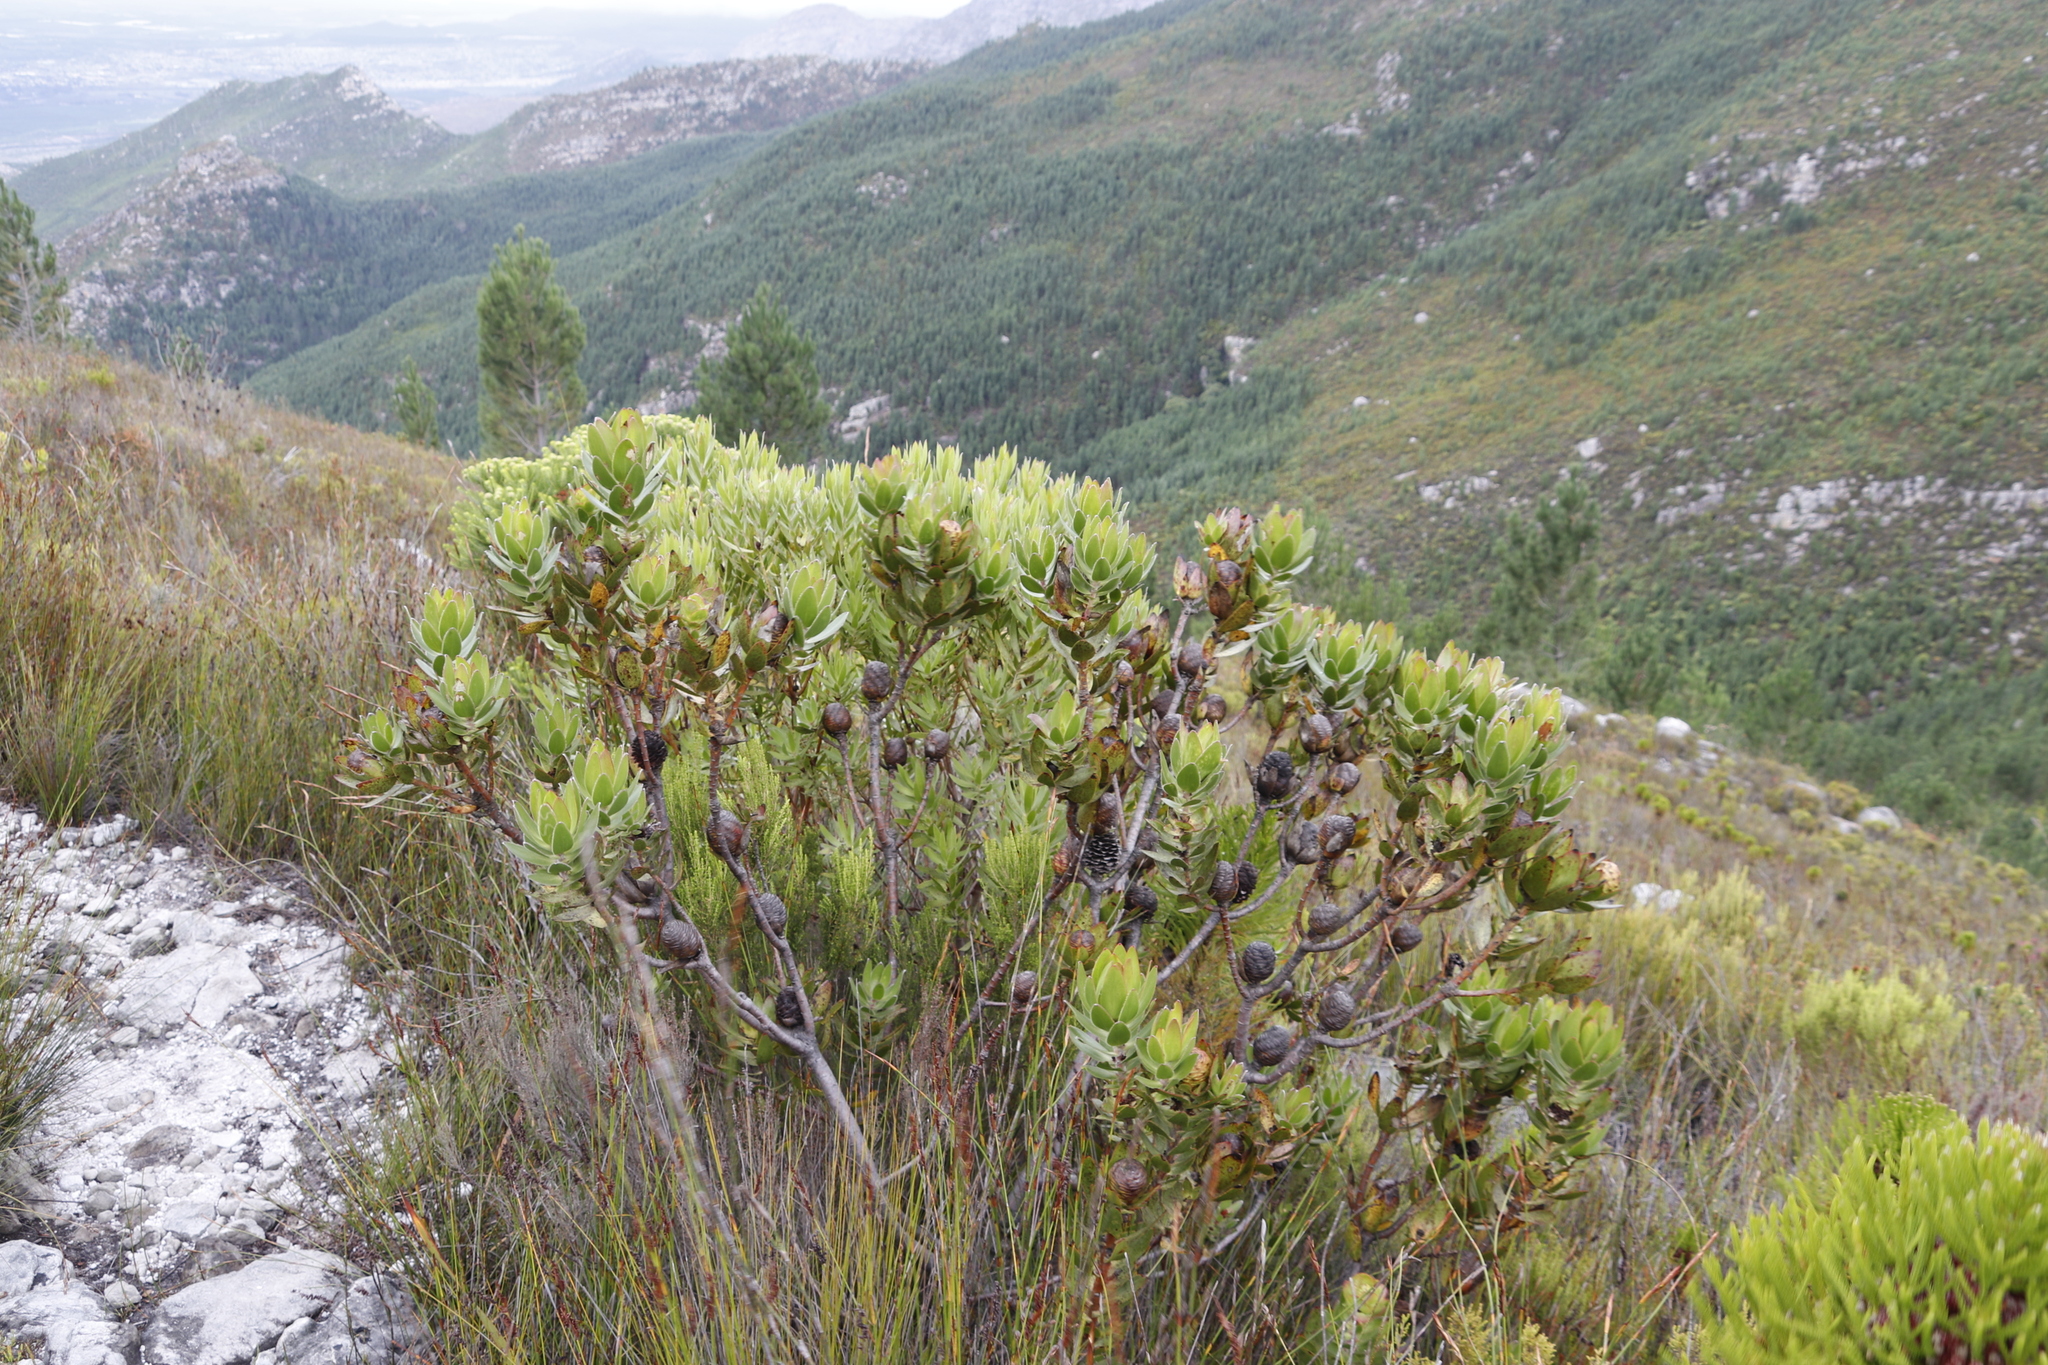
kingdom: Plantae
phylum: Tracheophyta
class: Magnoliopsida
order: Proteales
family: Proteaceae
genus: Leucadendron
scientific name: Leucadendron gandogeri
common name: Broad-leaf conebush
